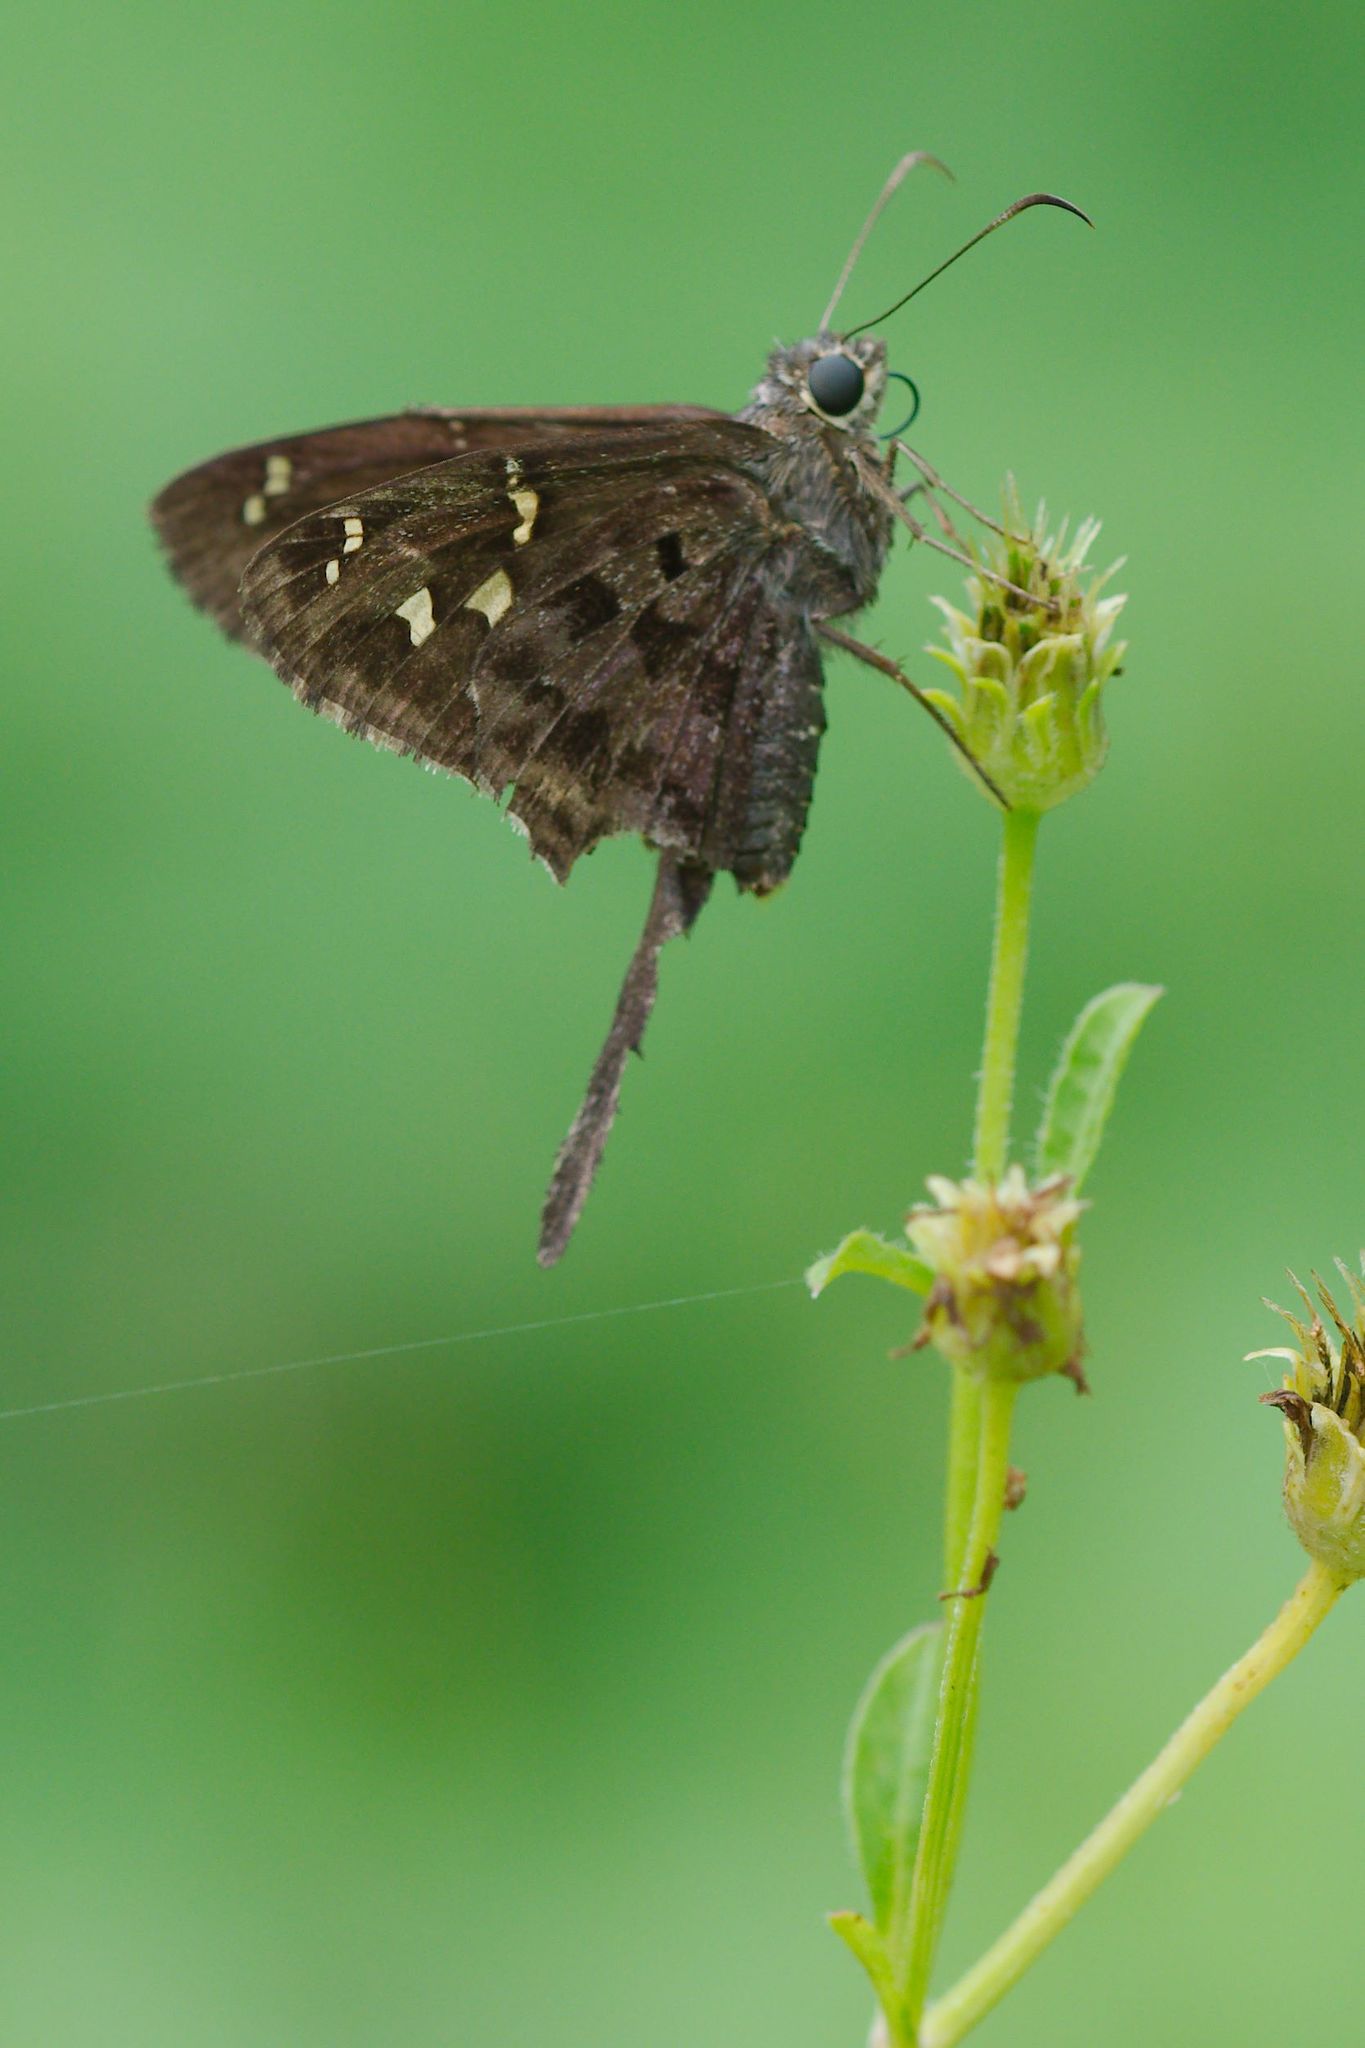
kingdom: Animalia
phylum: Arthropoda
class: Insecta
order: Lepidoptera
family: Hesperiidae
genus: Thorybes
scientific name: Thorybes
